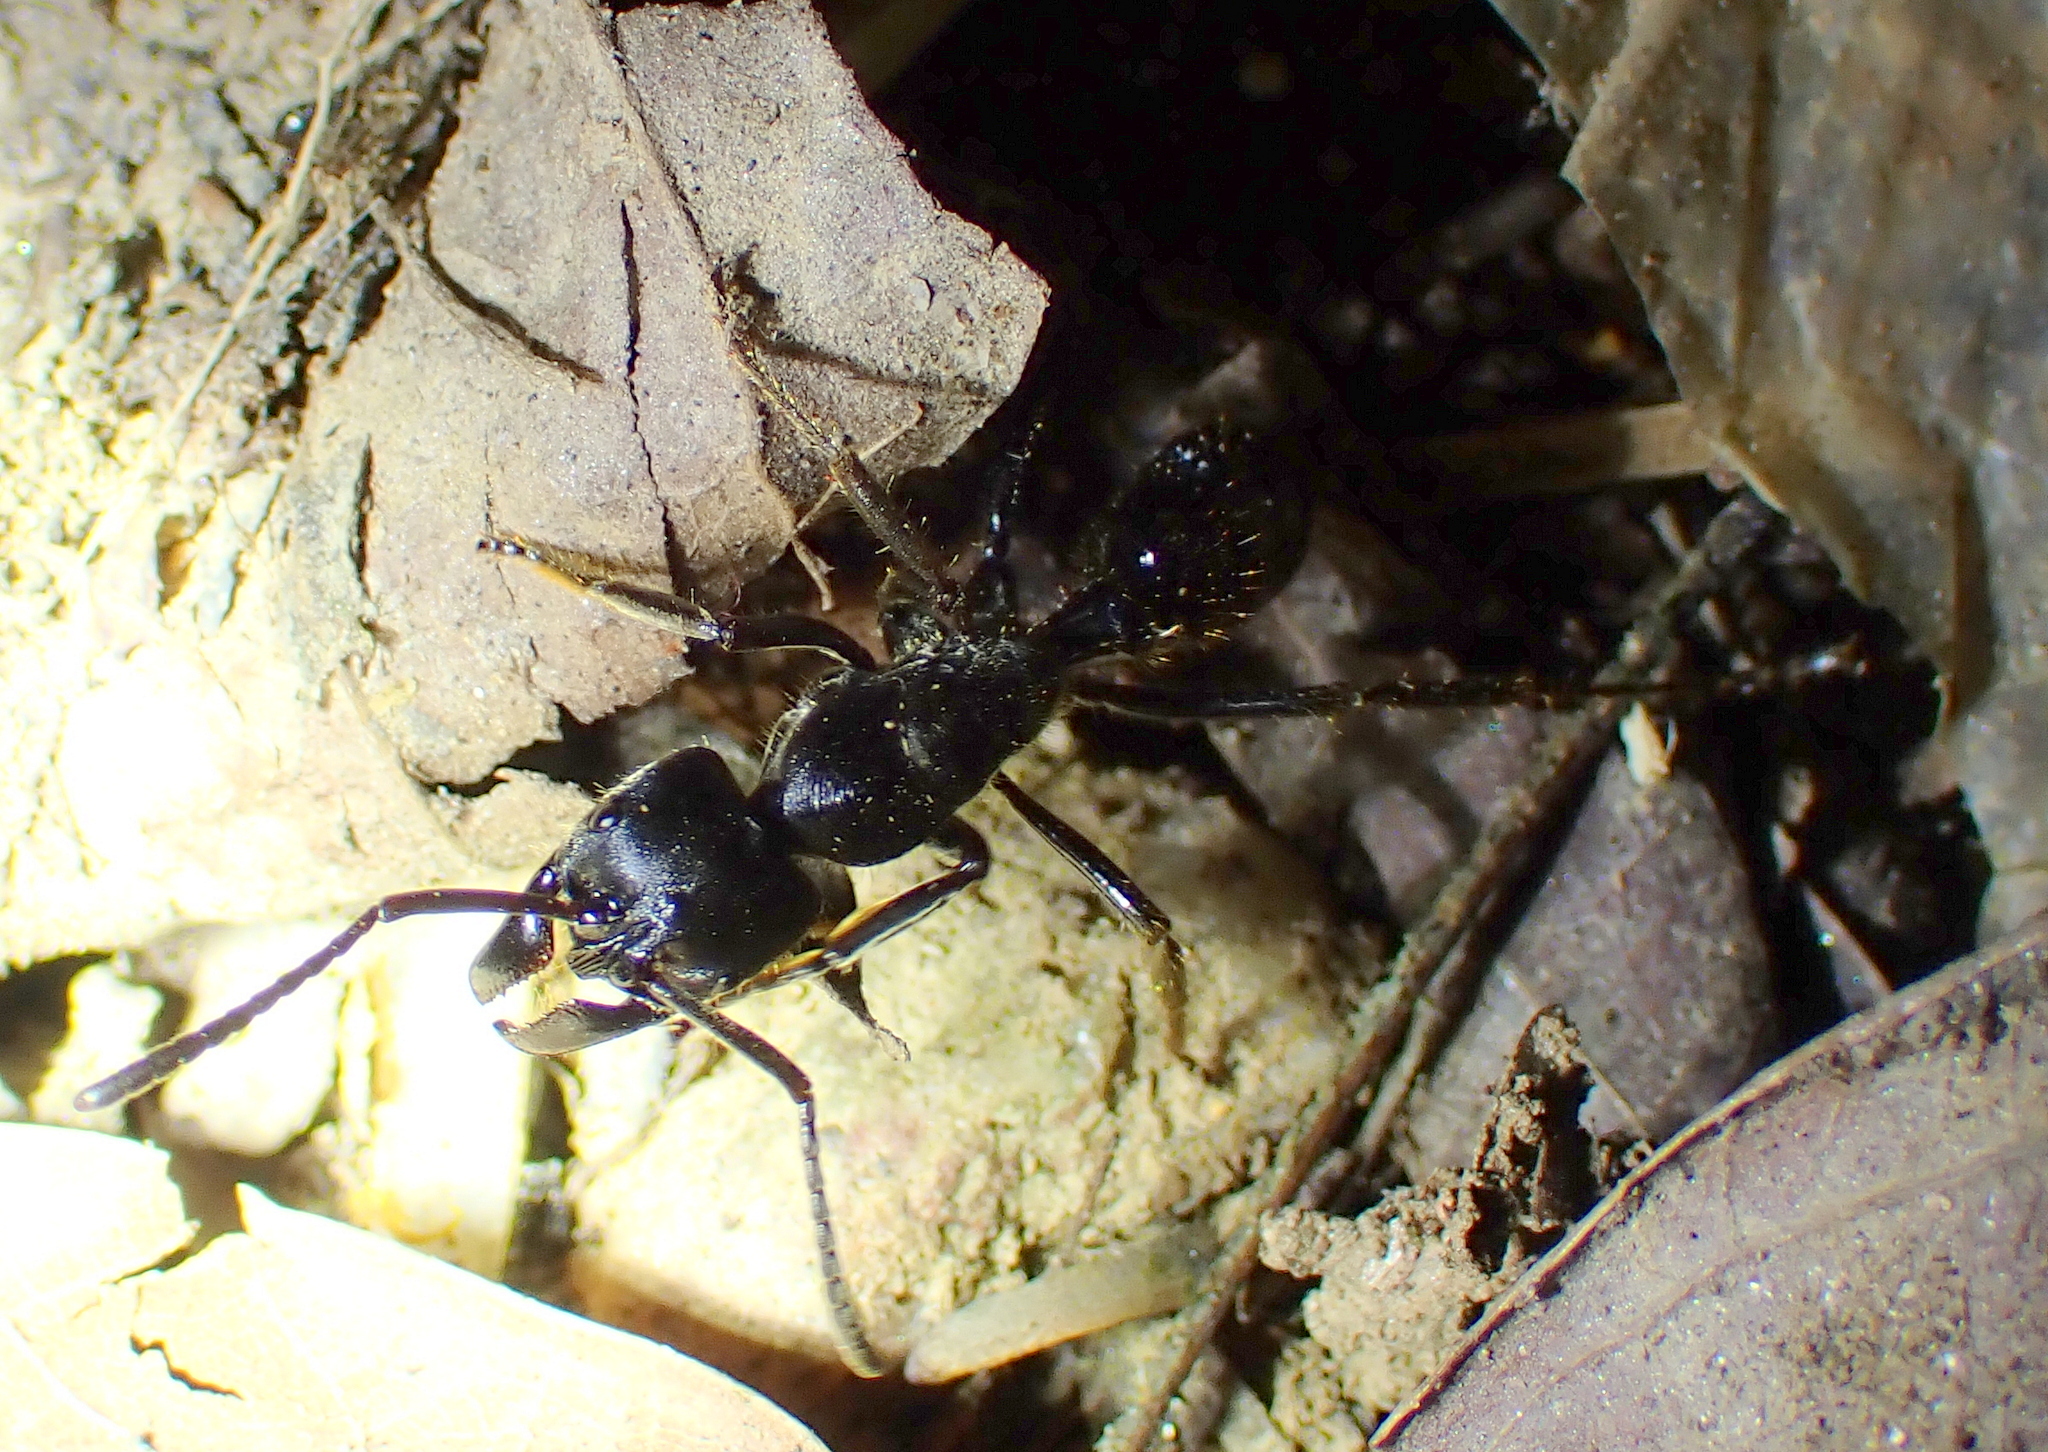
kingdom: Animalia
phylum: Arthropoda
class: Insecta
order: Hymenoptera
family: Formicidae
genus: Paltothyreus
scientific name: Paltothyreus tarsatus
